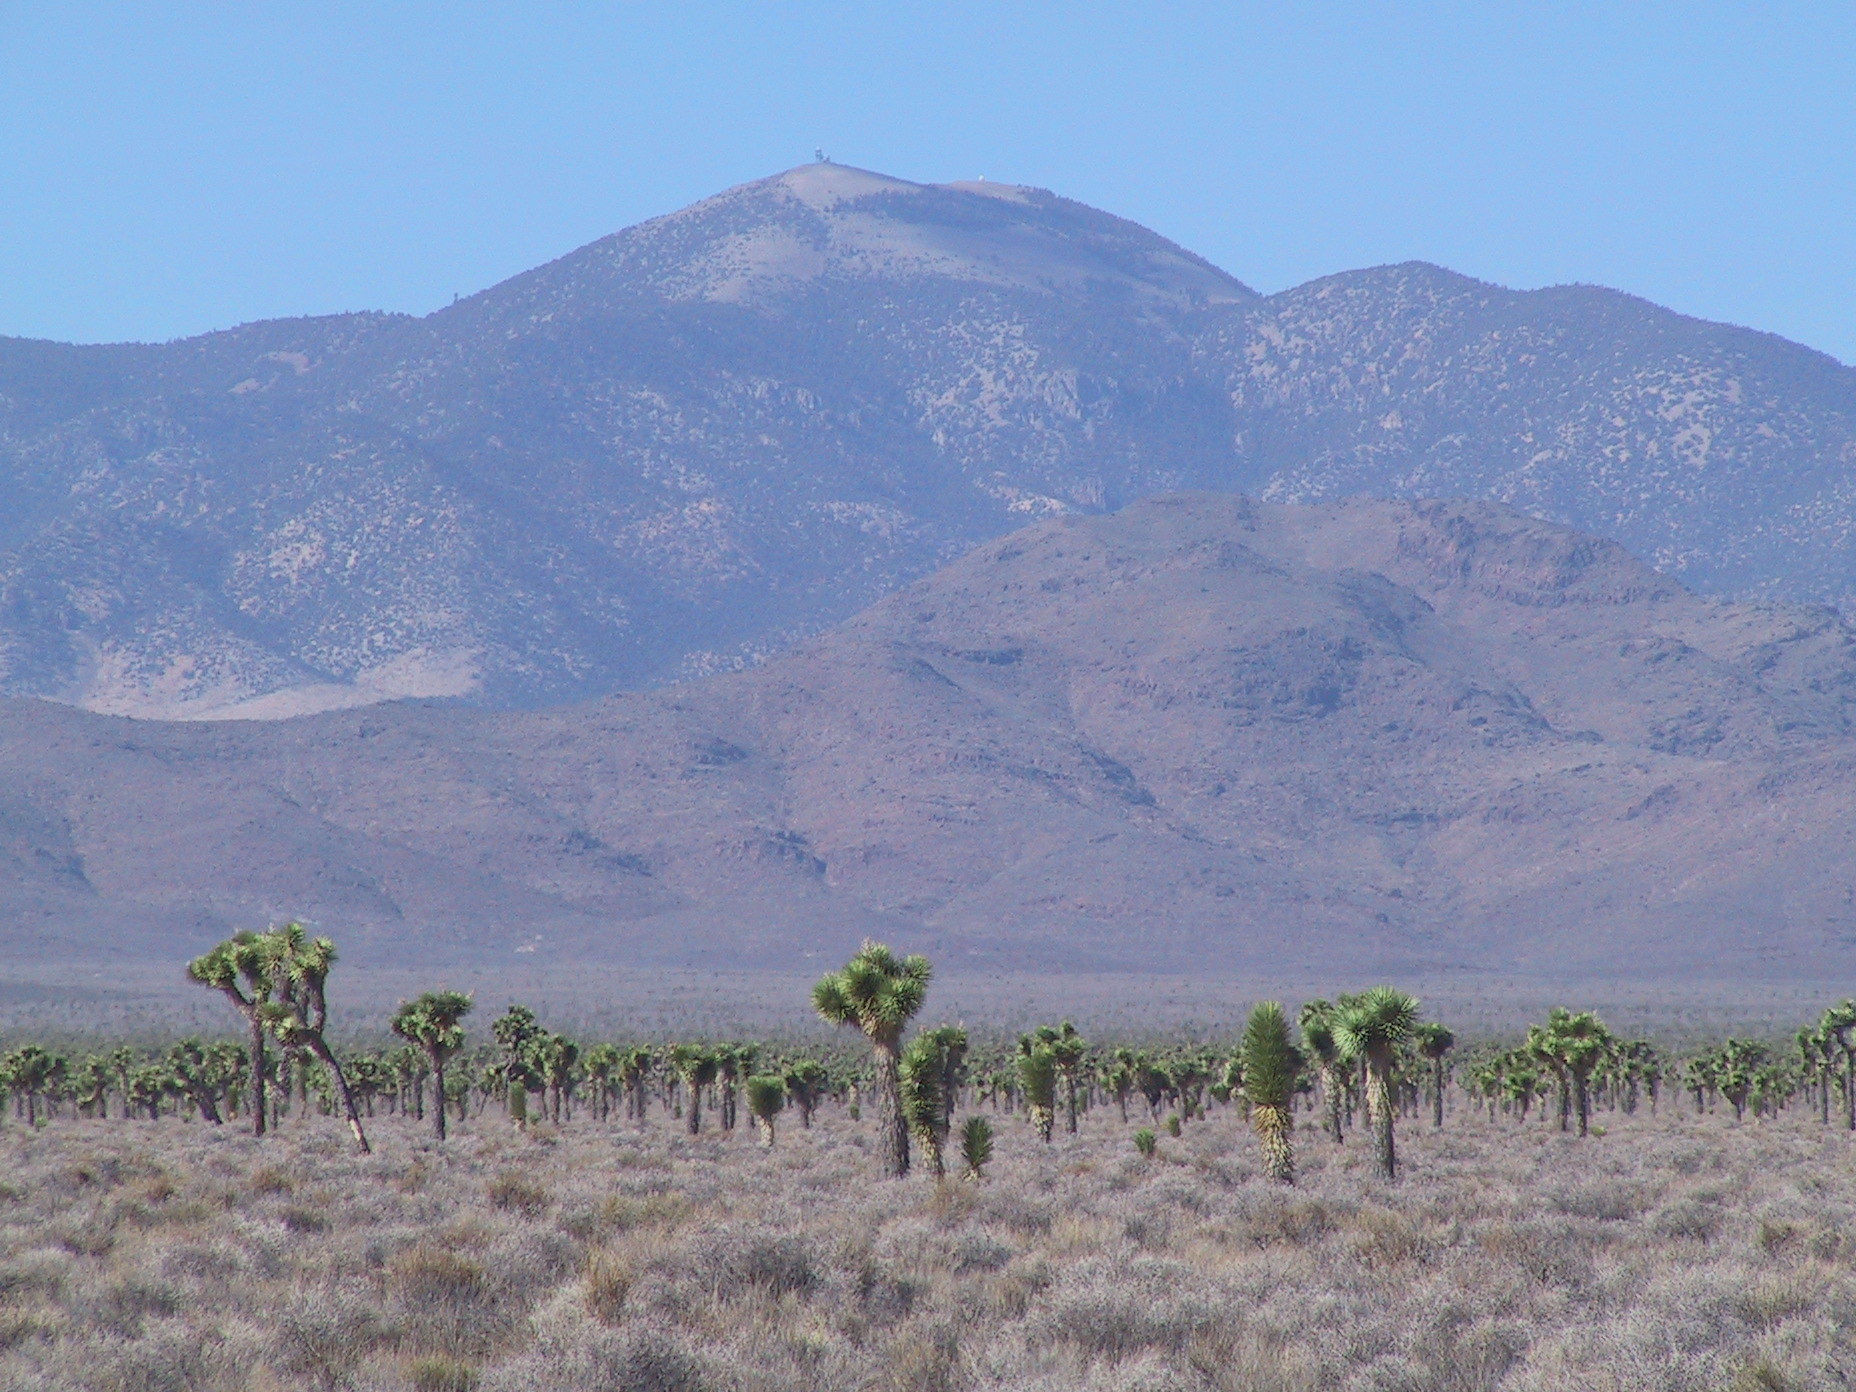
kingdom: Plantae
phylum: Tracheophyta
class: Liliopsida
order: Asparagales
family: Asparagaceae
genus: Yucca
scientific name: Yucca brevifolia
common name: Joshua tree
